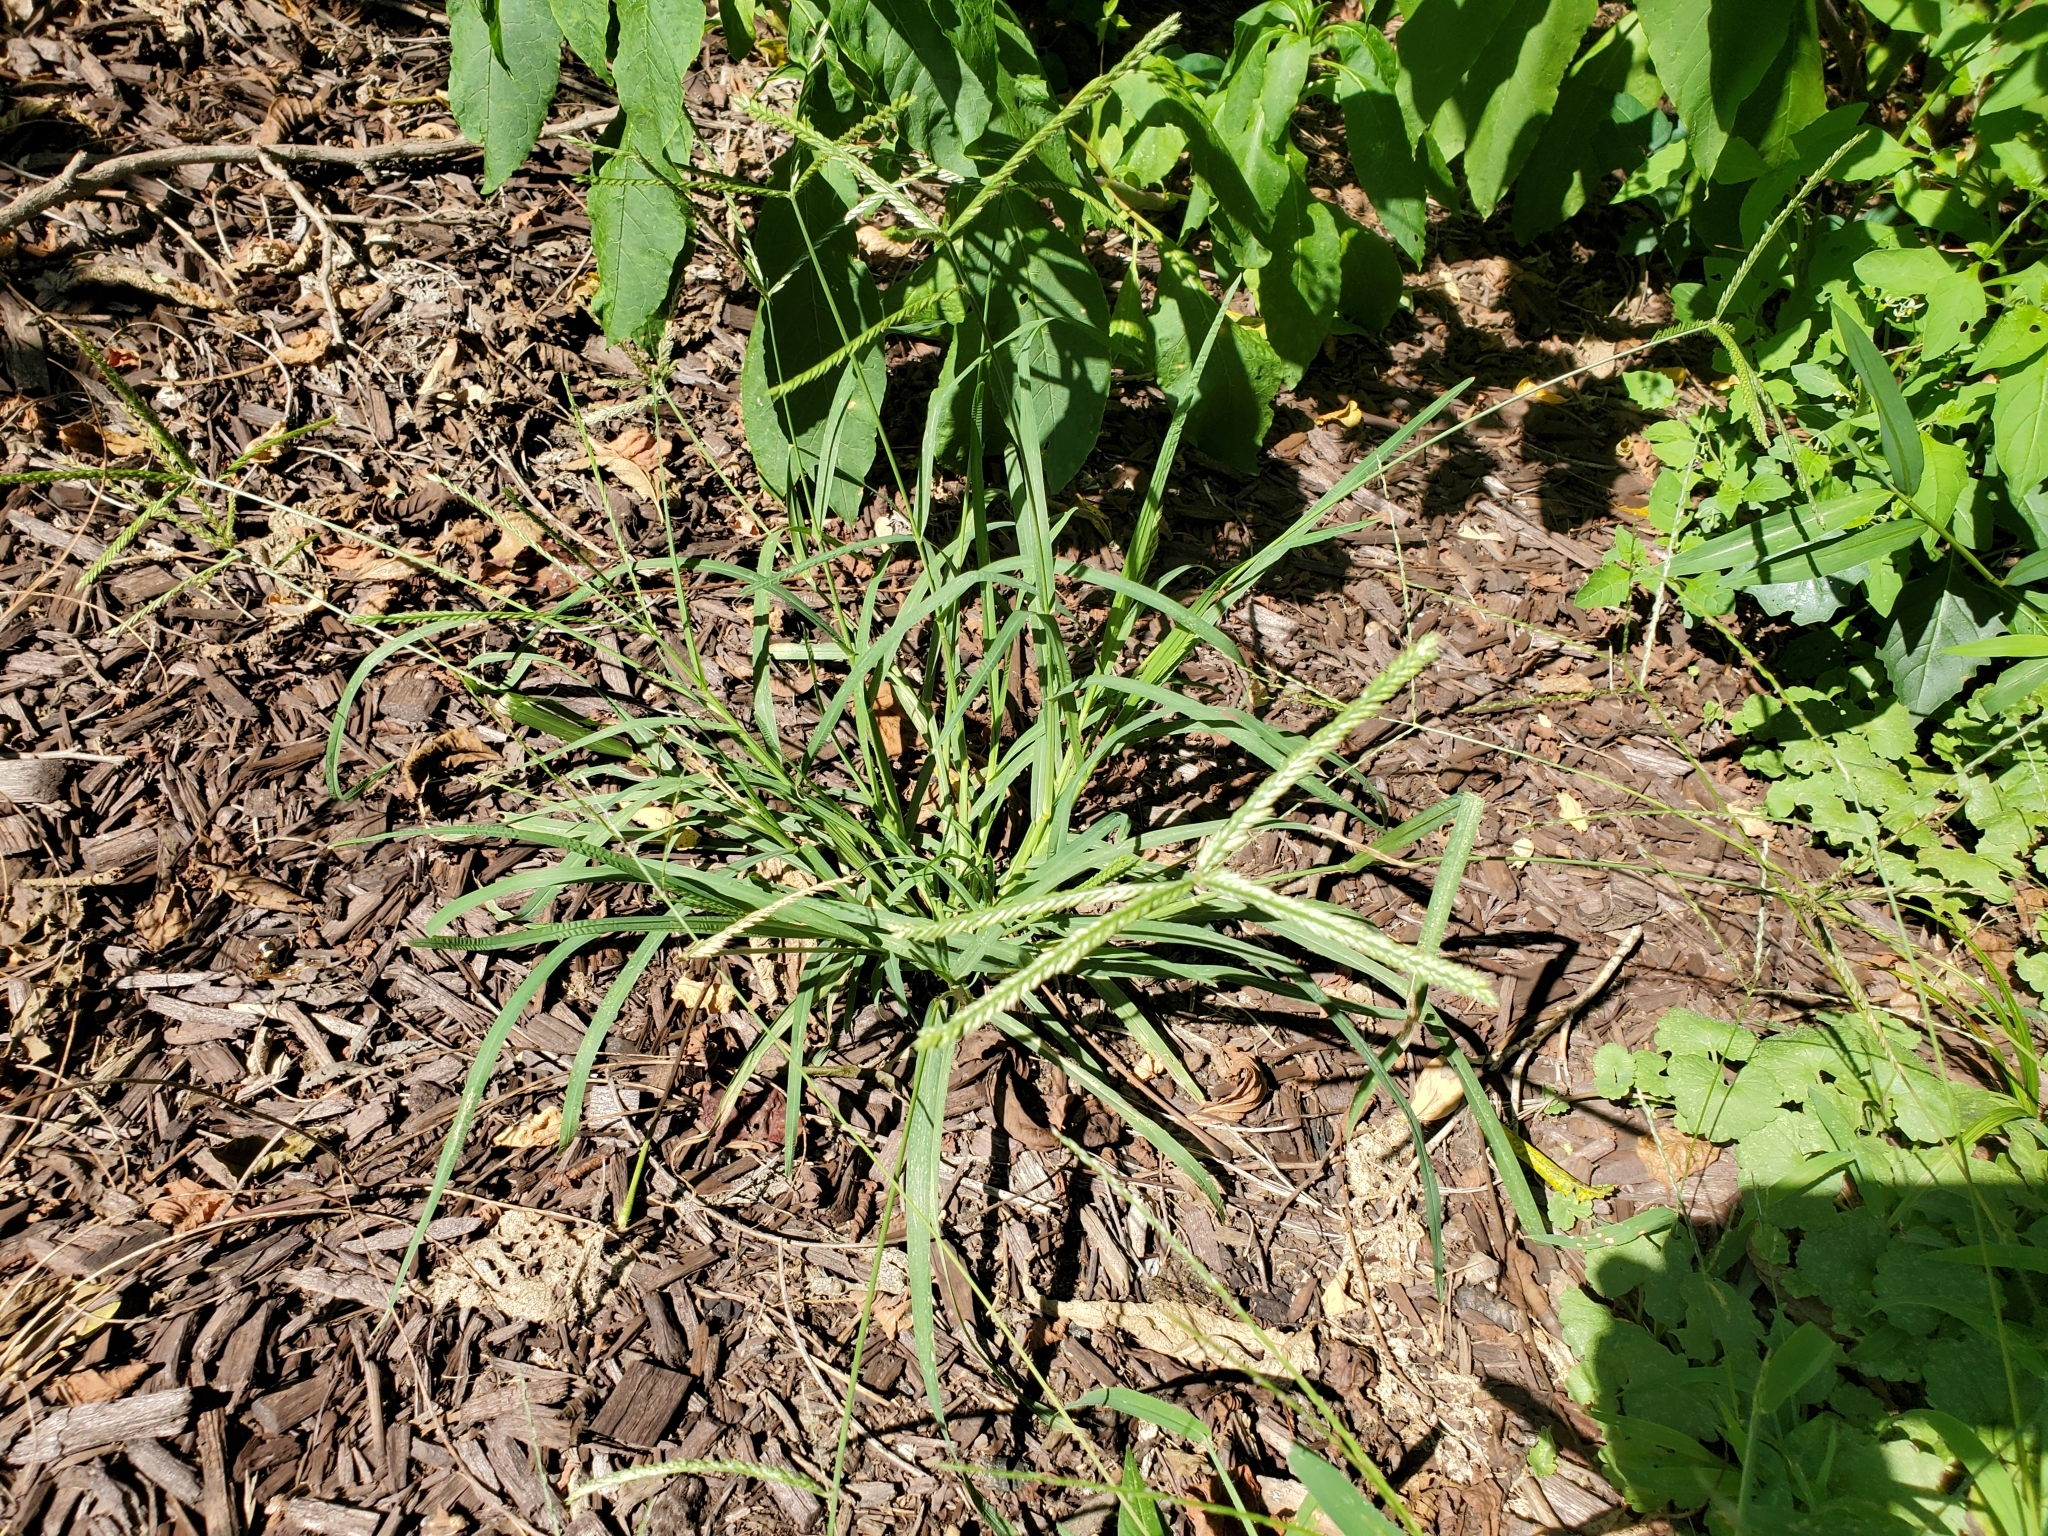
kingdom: Plantae
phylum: Tracheophyta
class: Liliopsida
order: Poales
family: Poaceae
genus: Eleusine
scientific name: Eleusine indica
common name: Yard-grass
